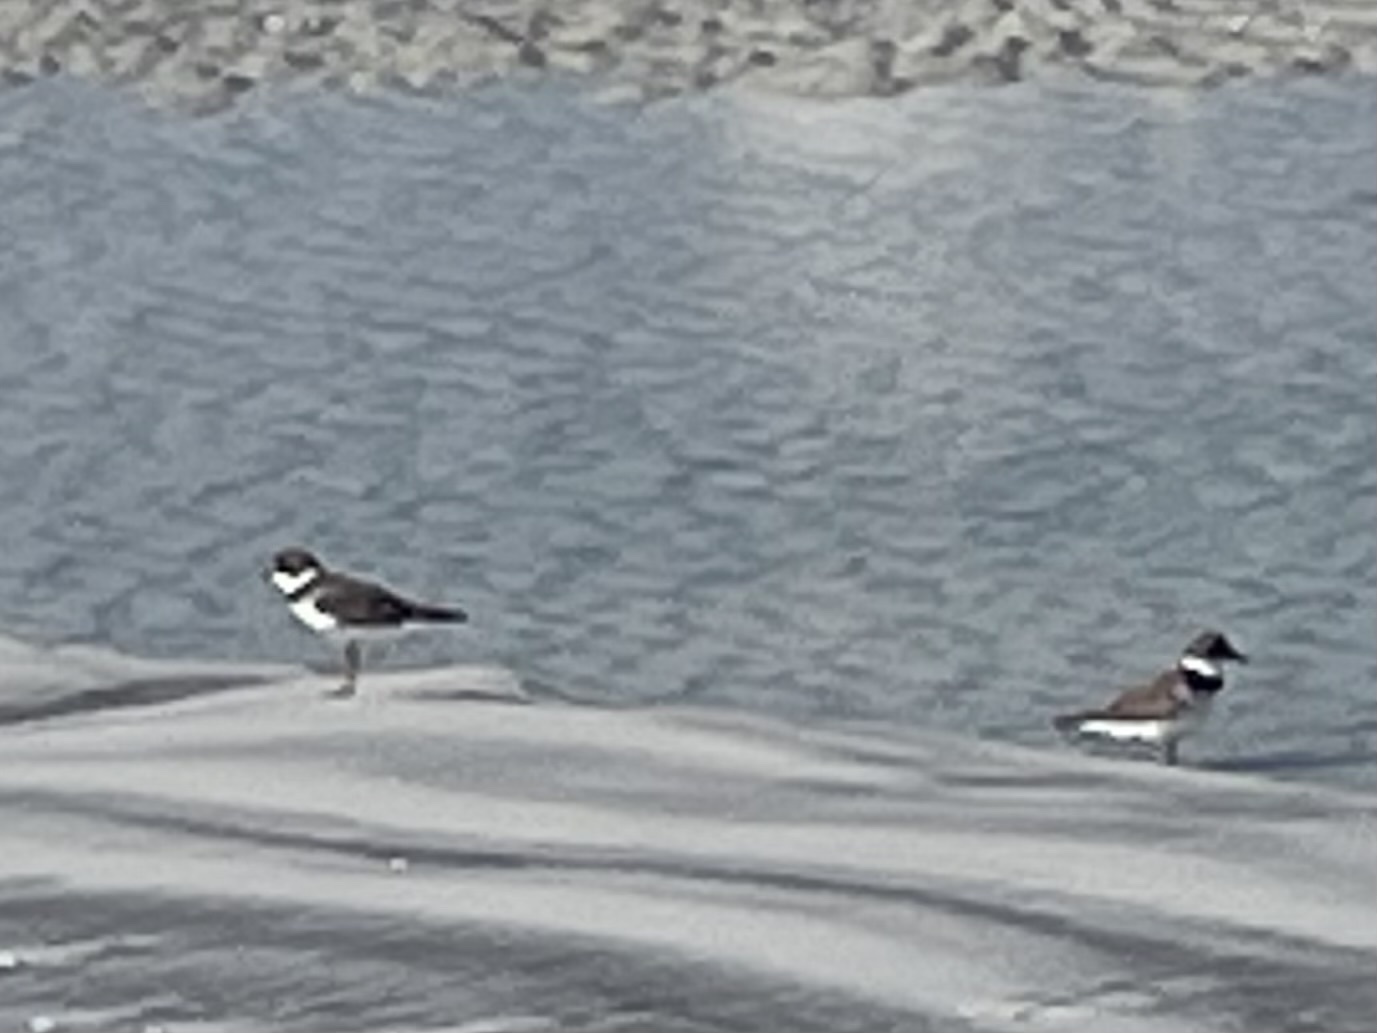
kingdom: Animalia
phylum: Chordata
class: Aves
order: Charadriiformes
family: Charadriidae
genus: Charadrius
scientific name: Charadrius semipalmatus
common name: Semipalmated plover
